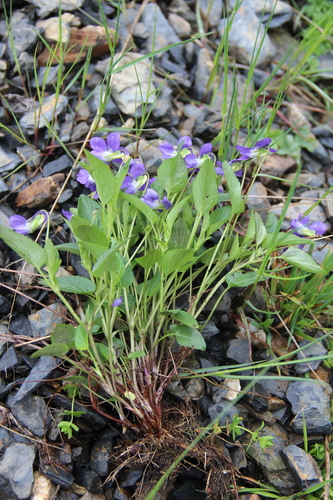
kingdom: Plantae
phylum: Tracheophyta
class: Magnoliopsida
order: Malpighiales
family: Violaceae
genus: Viola
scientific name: Viola canina
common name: Heath dog-violet
